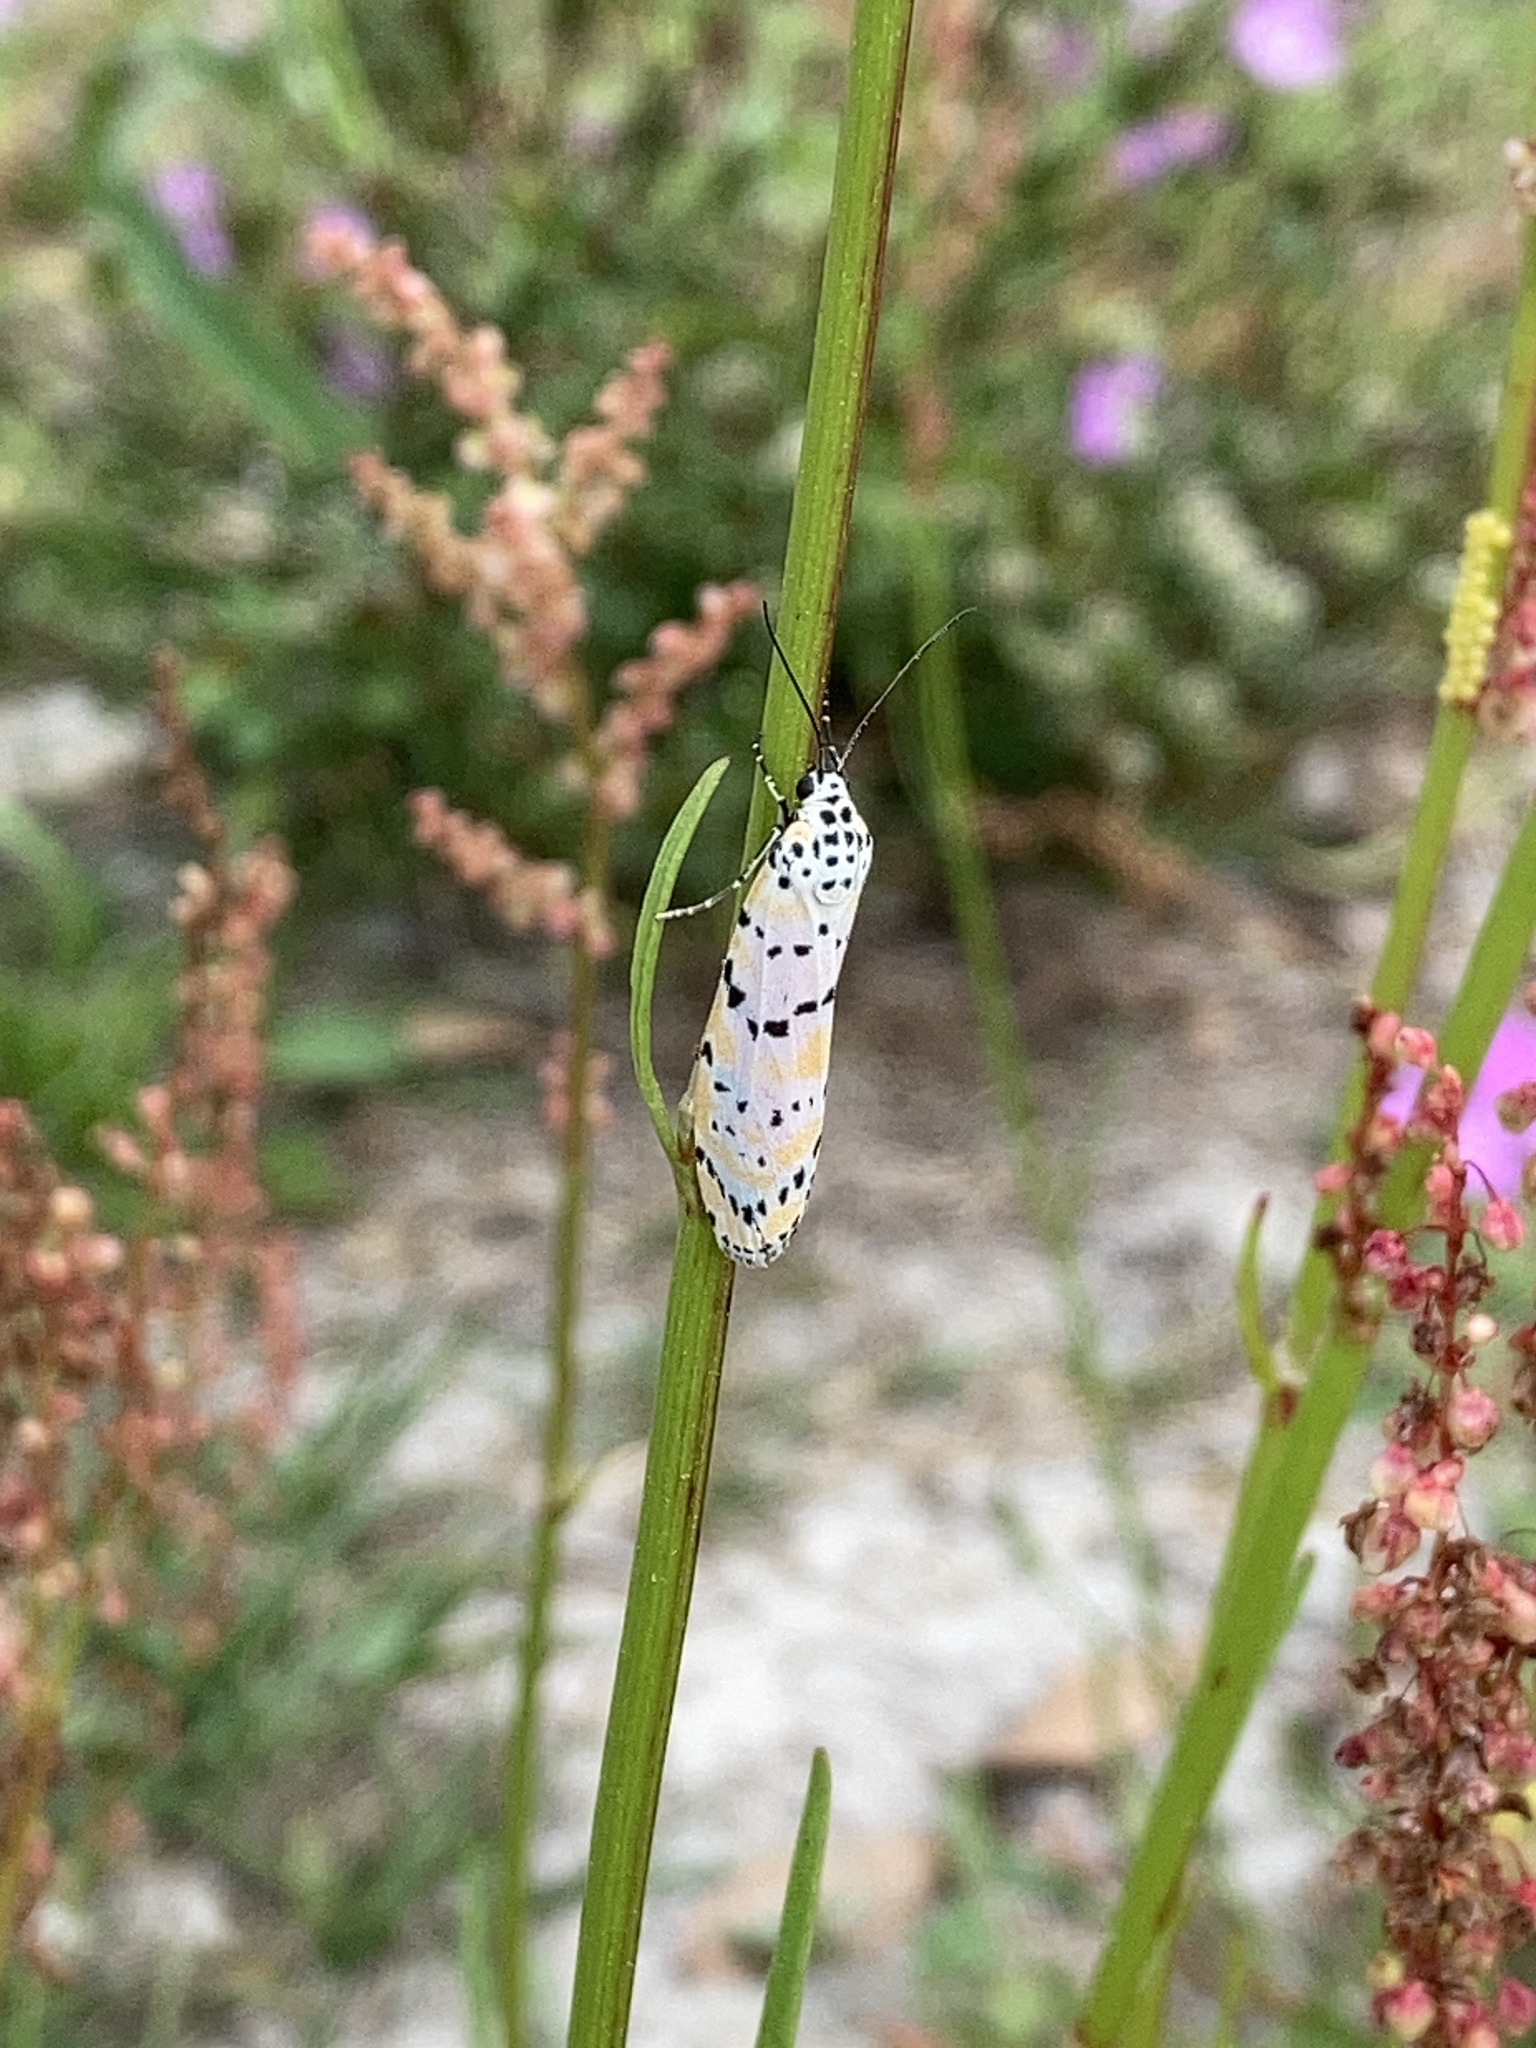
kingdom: Animalia
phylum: Arthropoda
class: Insecta
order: Lepidoptera
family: Erebidae
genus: Utetheisa
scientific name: Utetheisa ornatrix
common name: Beautiful utetheisa
